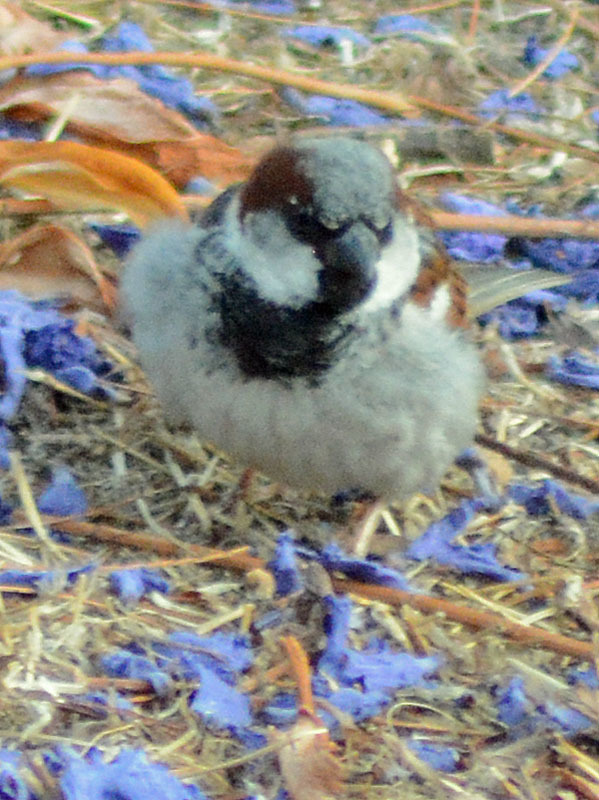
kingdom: Animalia
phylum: Chordata
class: Aves
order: Passeriformes
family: Passeridae
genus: Passer
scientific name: Passer domesticus
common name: House sparrow
